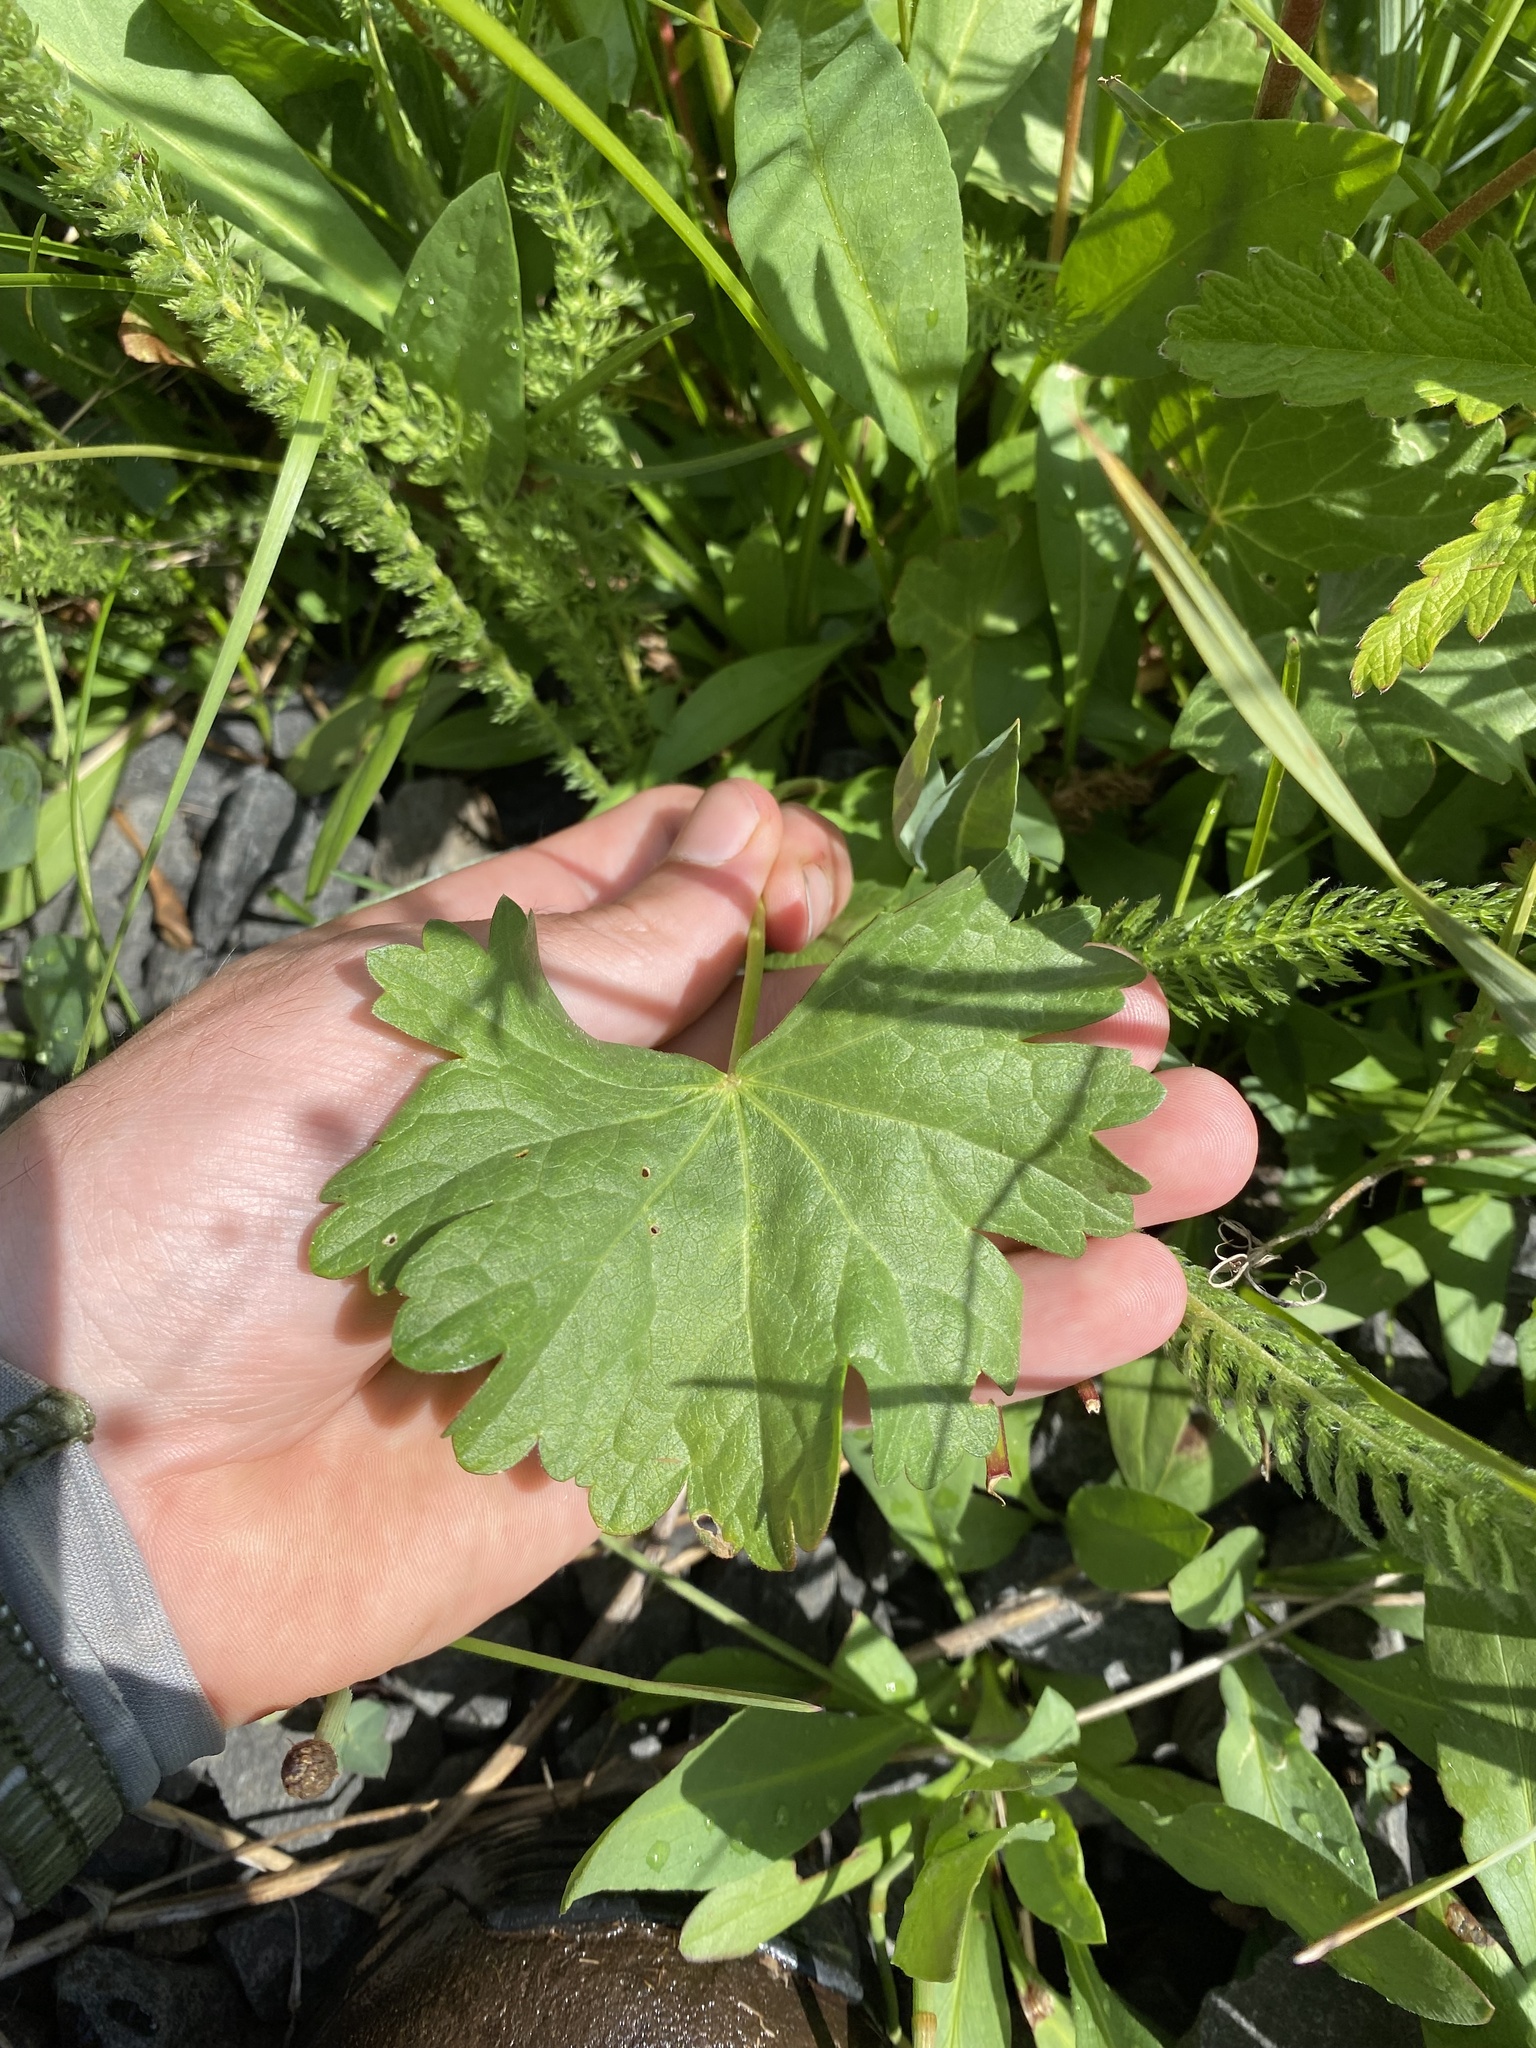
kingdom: Plantae
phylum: Tracheophyta
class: Magnoliopsida
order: Malvales
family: Malvaceae
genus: Sidalcea
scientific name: Sidalcea oregana
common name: Oregon checker-mallow
